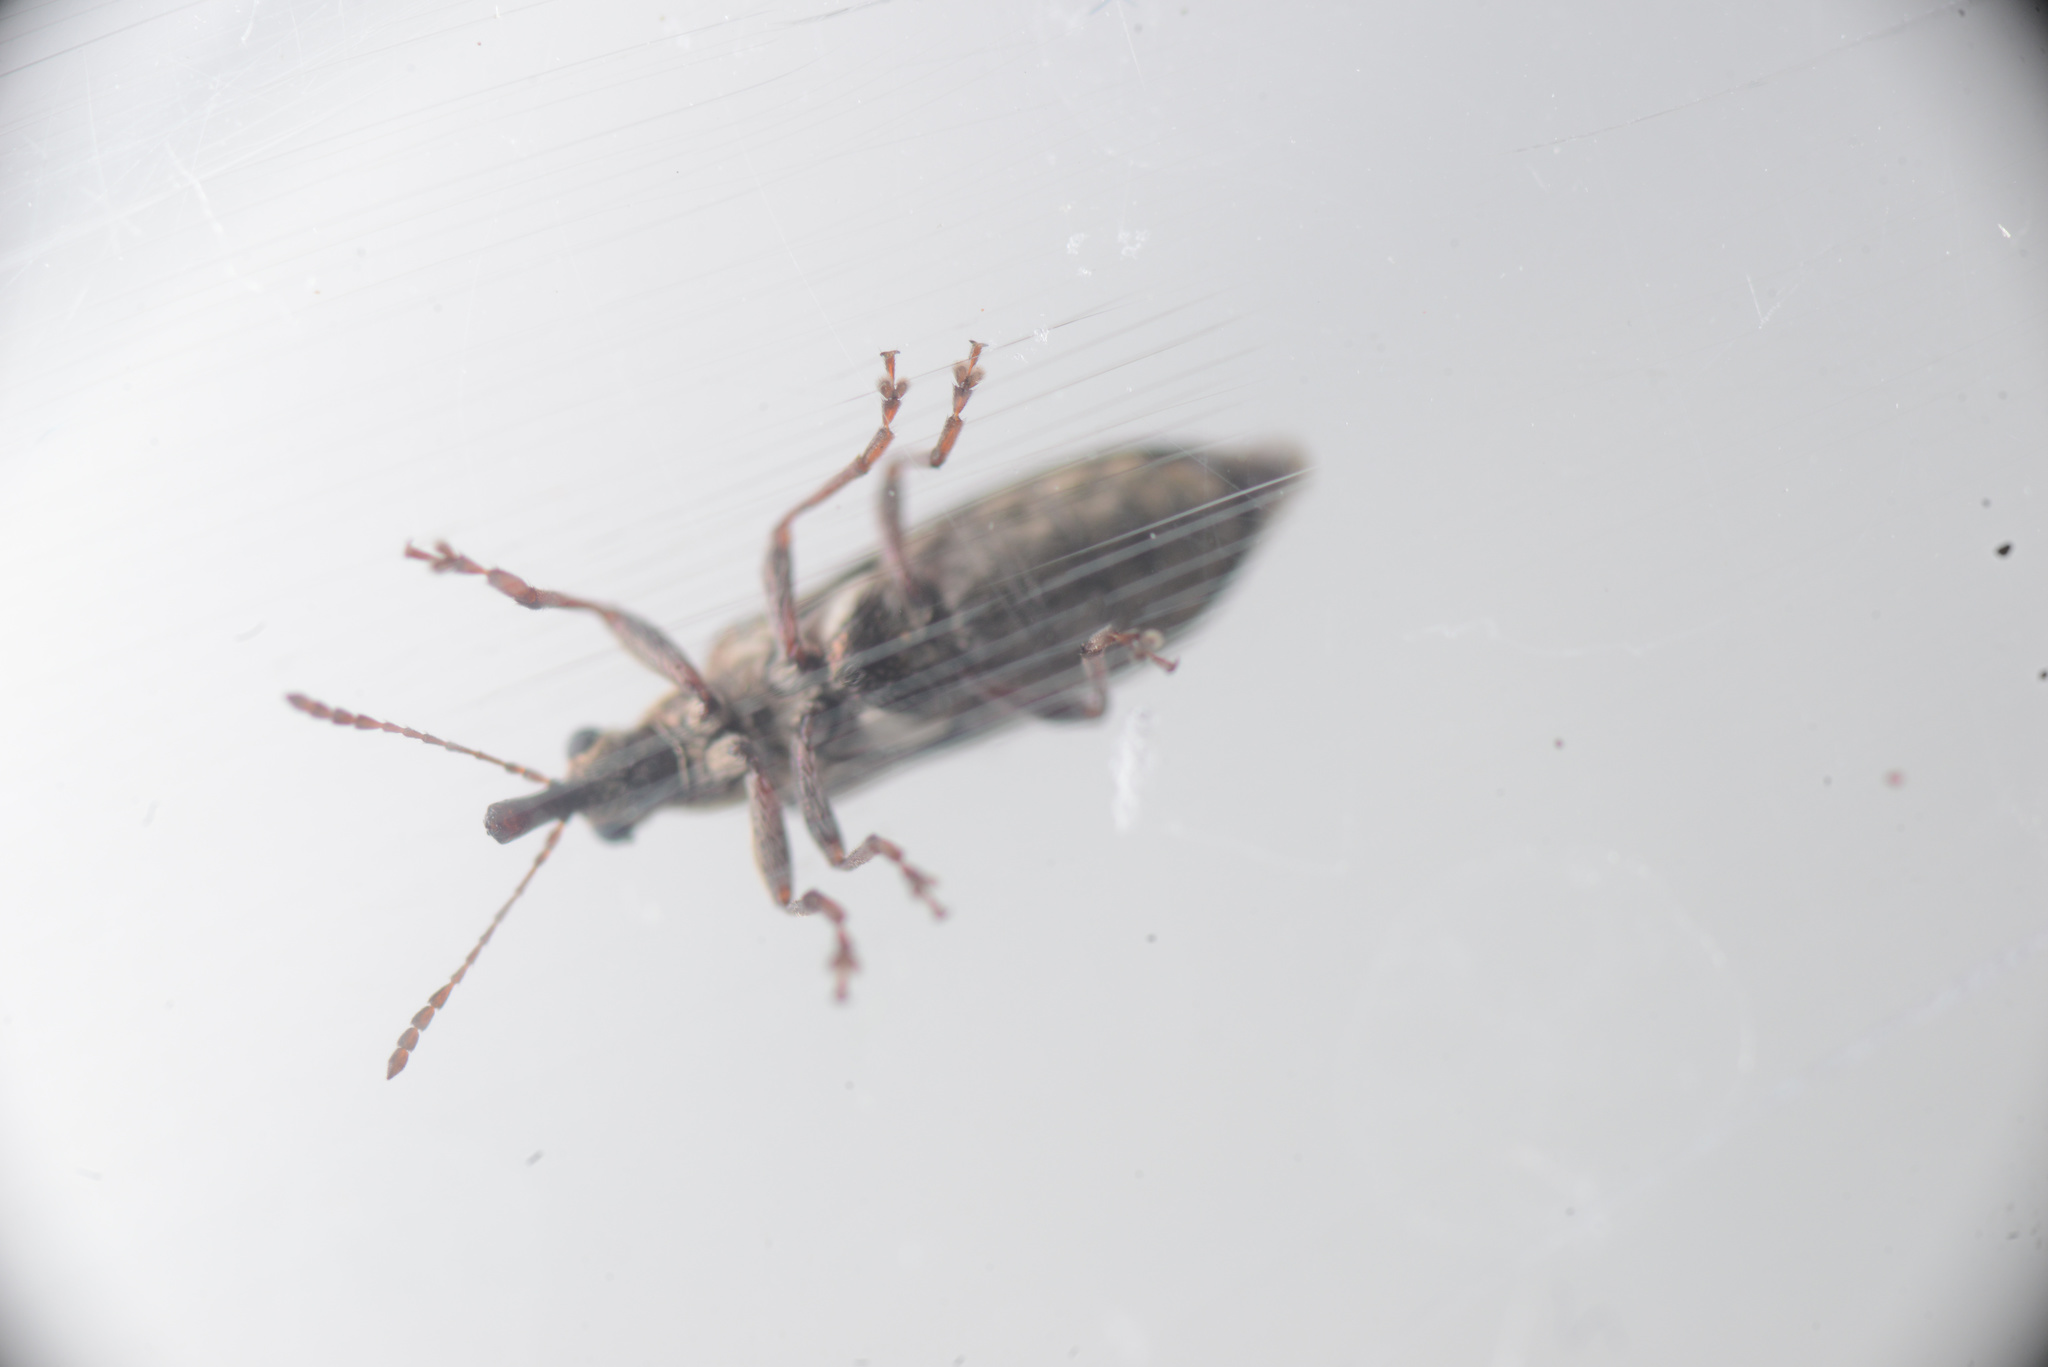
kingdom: Animalia
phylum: Arthropoda
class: Insecta
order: Coleoptera
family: Belidae
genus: Rhicnobelus
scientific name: Rhicnobelus
